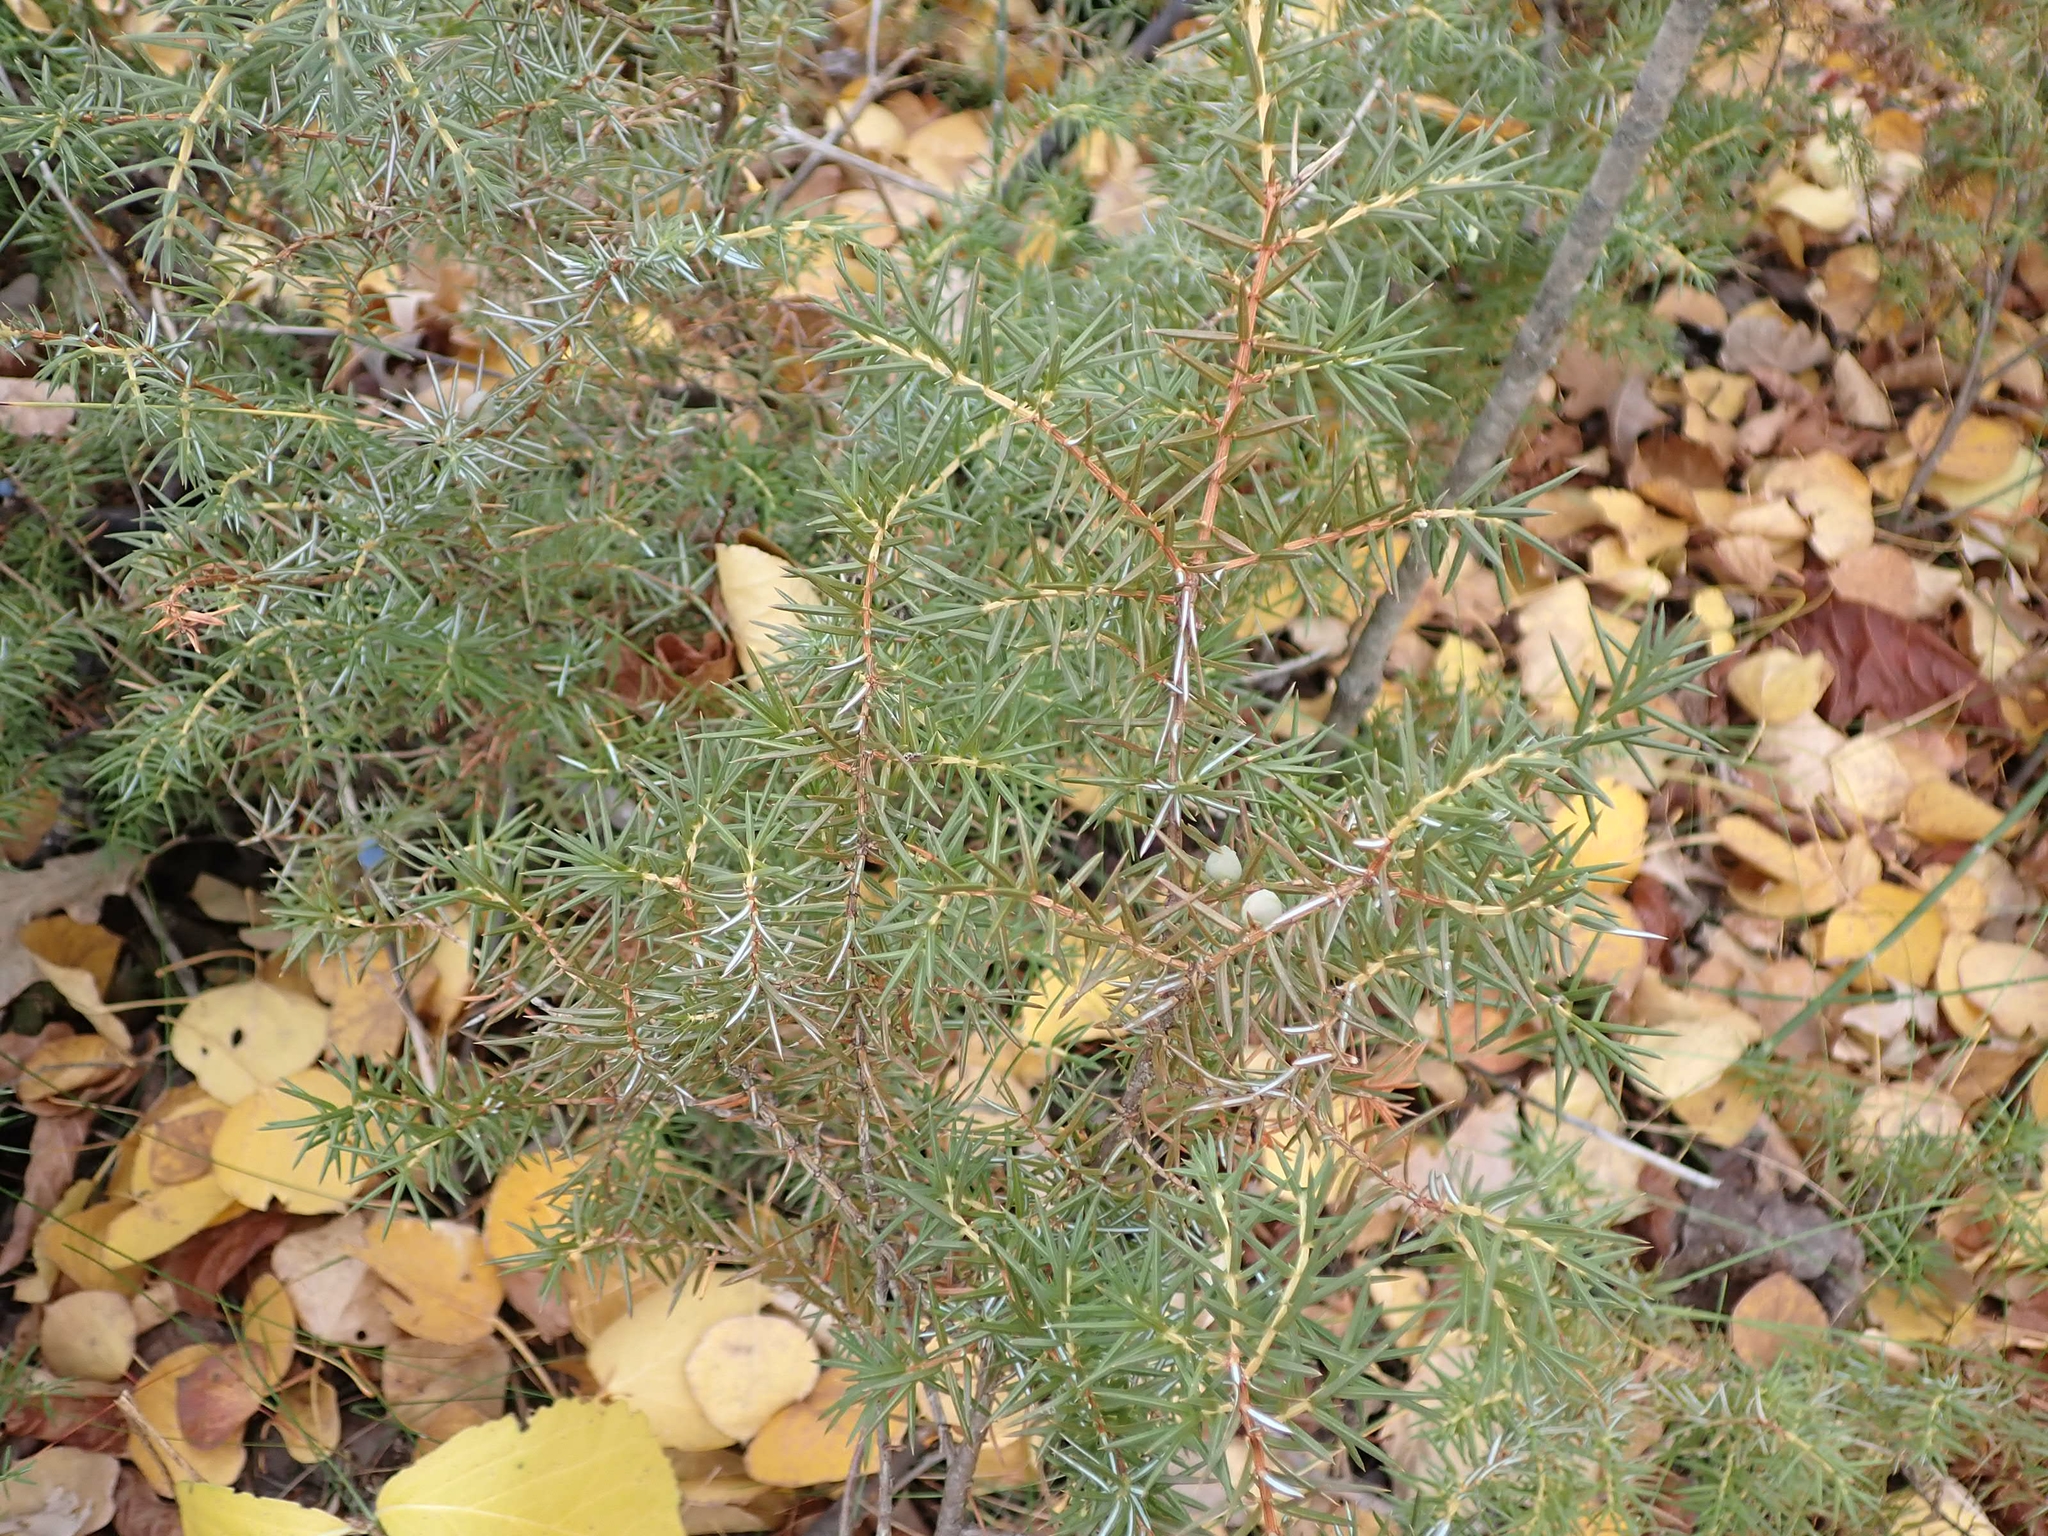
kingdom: Plantae
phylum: Tracheophyta
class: Pinopsida
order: Pinales
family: Cupressaceae
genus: Juniperus
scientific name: Juniperus communis
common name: Common juniper
